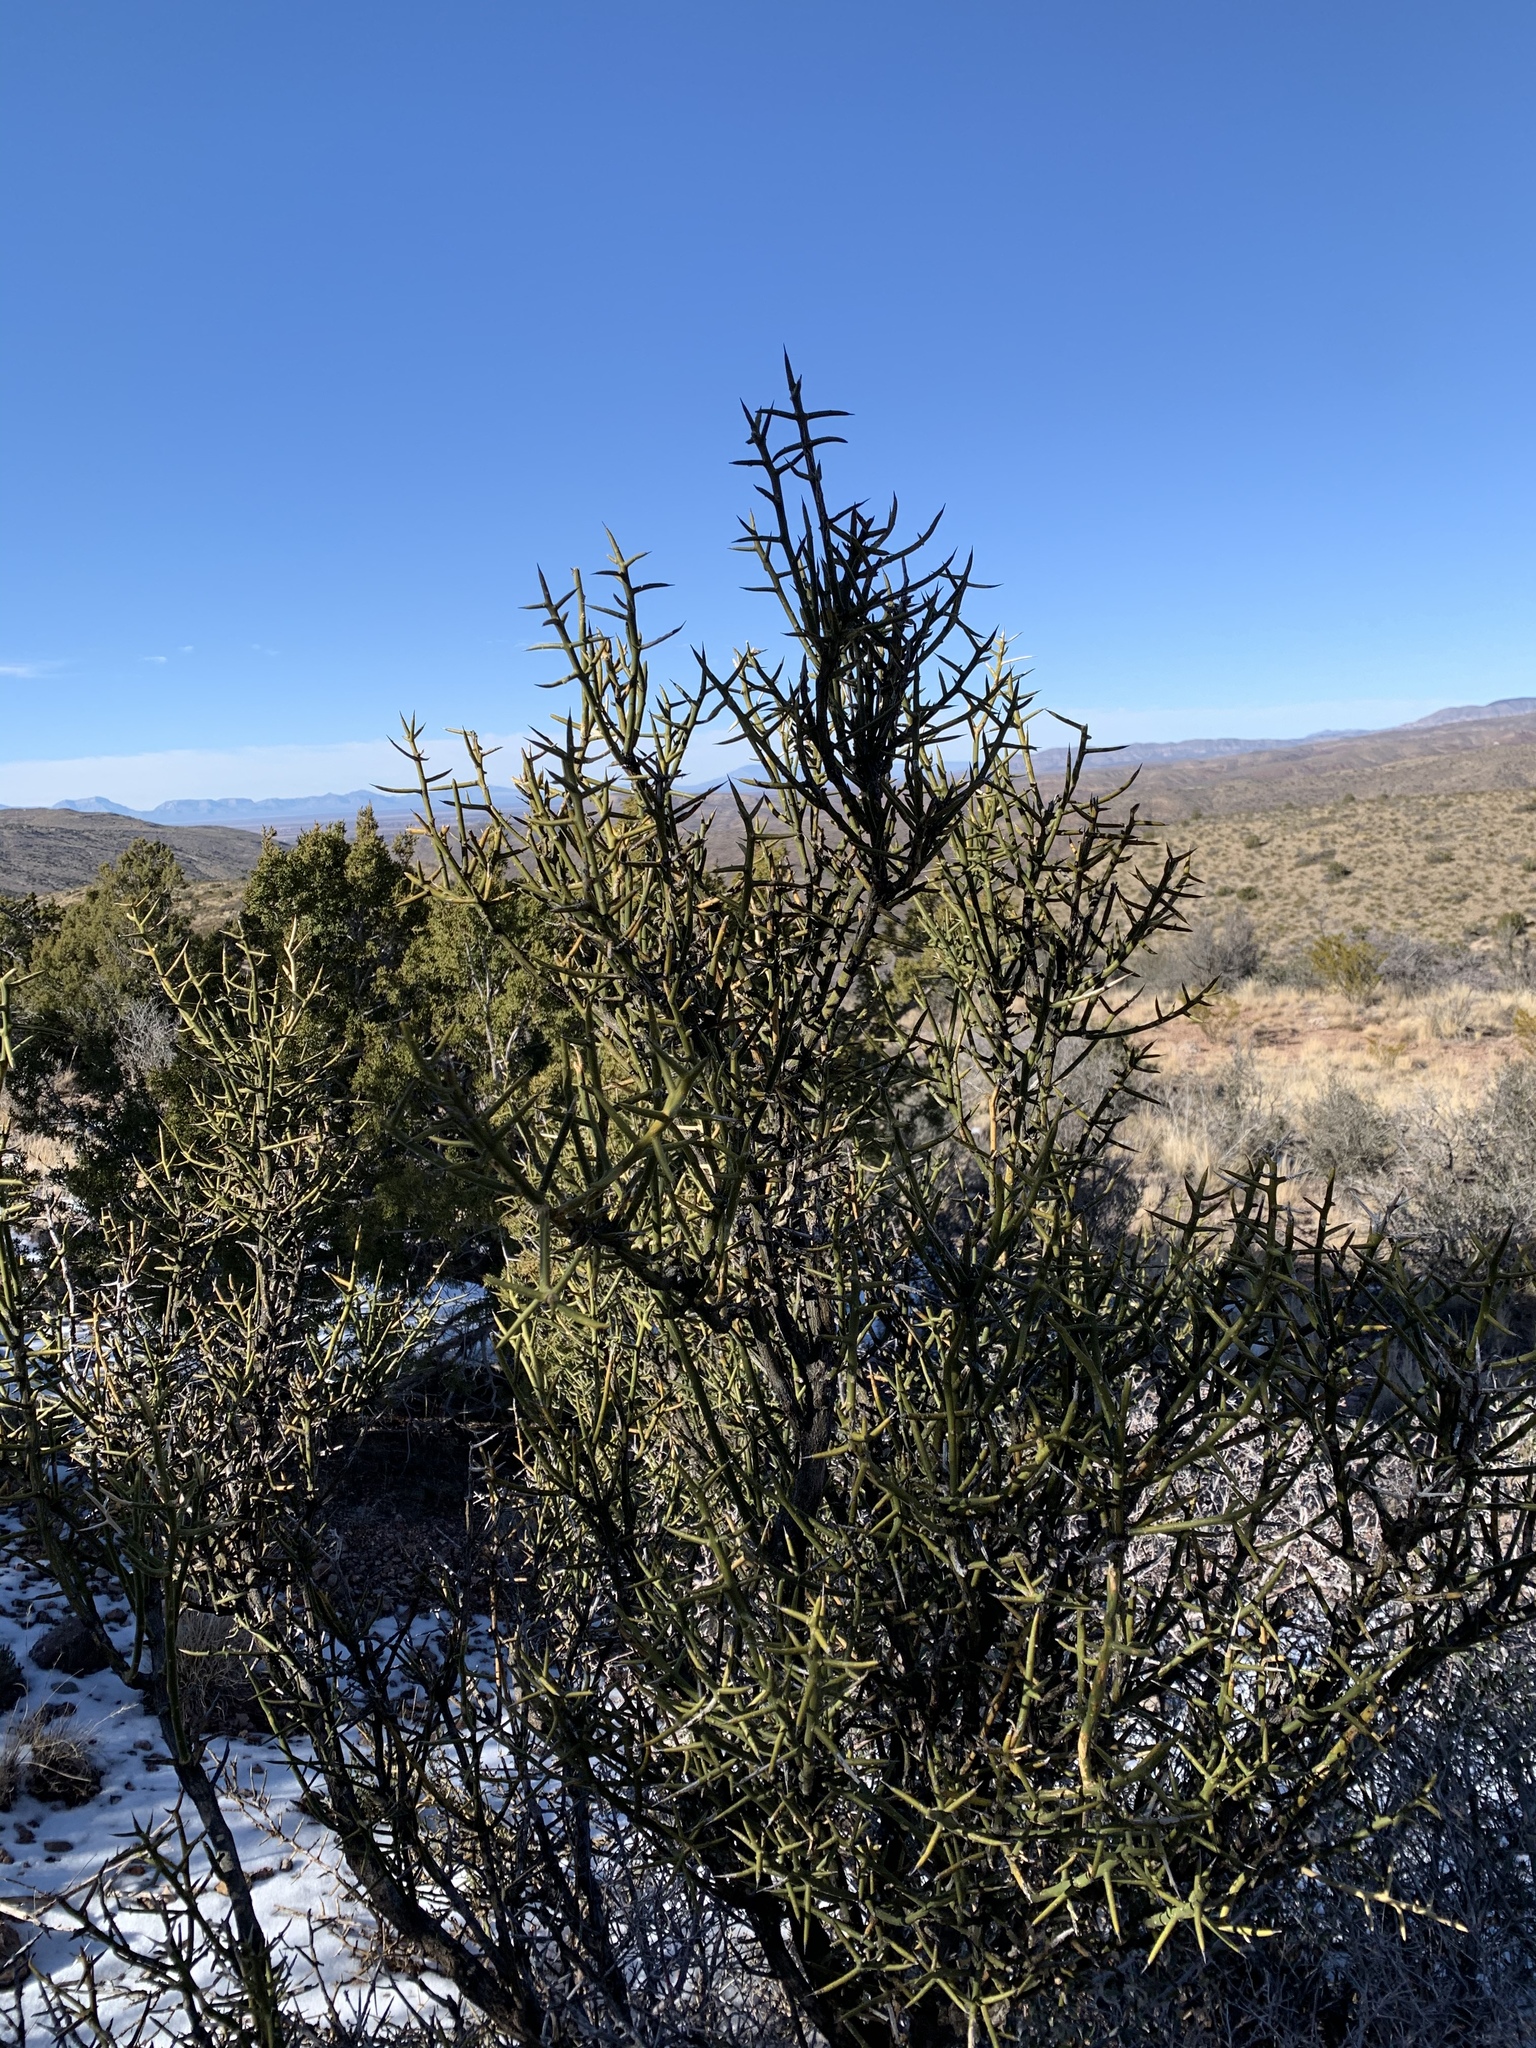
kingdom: Plantae
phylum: Tracheophyta
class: Magnoliopsida
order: Brassicales
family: Koeberliniaceae
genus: Koeberlinia
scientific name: Koeberlinia spinosa
